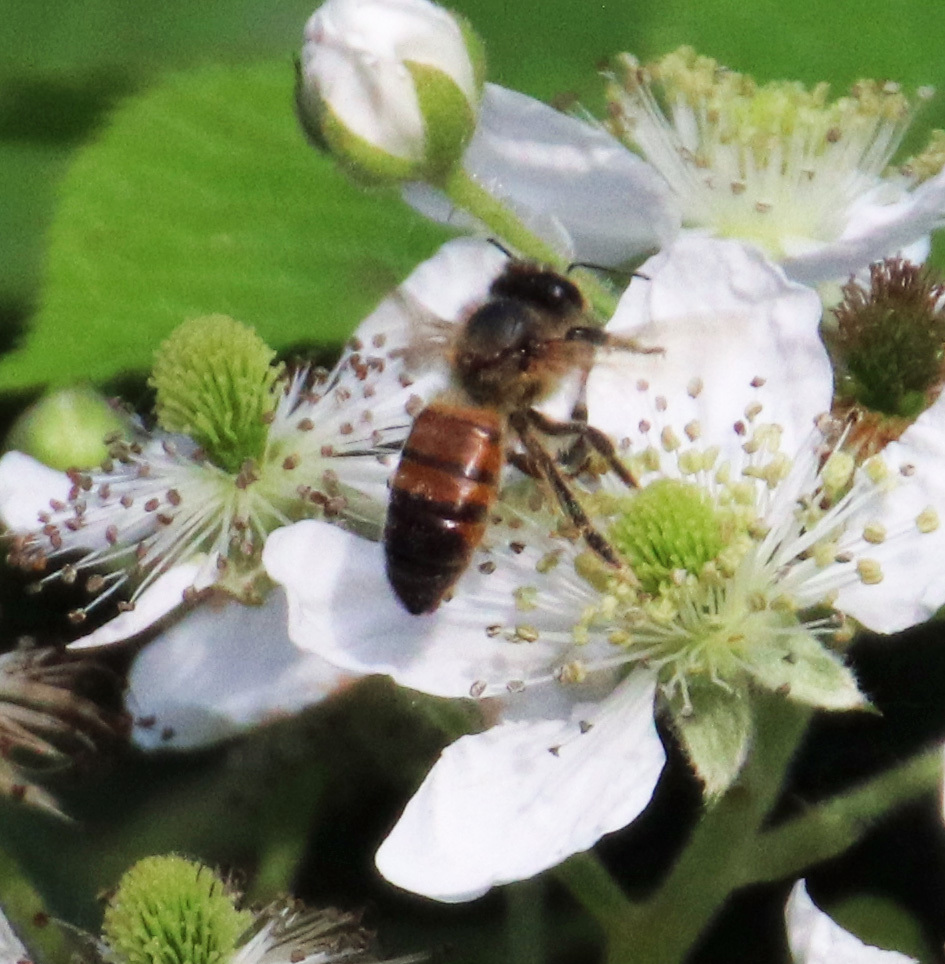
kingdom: Animalia
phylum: Arthropoda
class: Insecta
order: Hymenoptera
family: Apidae
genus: Apis
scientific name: Apis mellifera
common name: Honey bee
